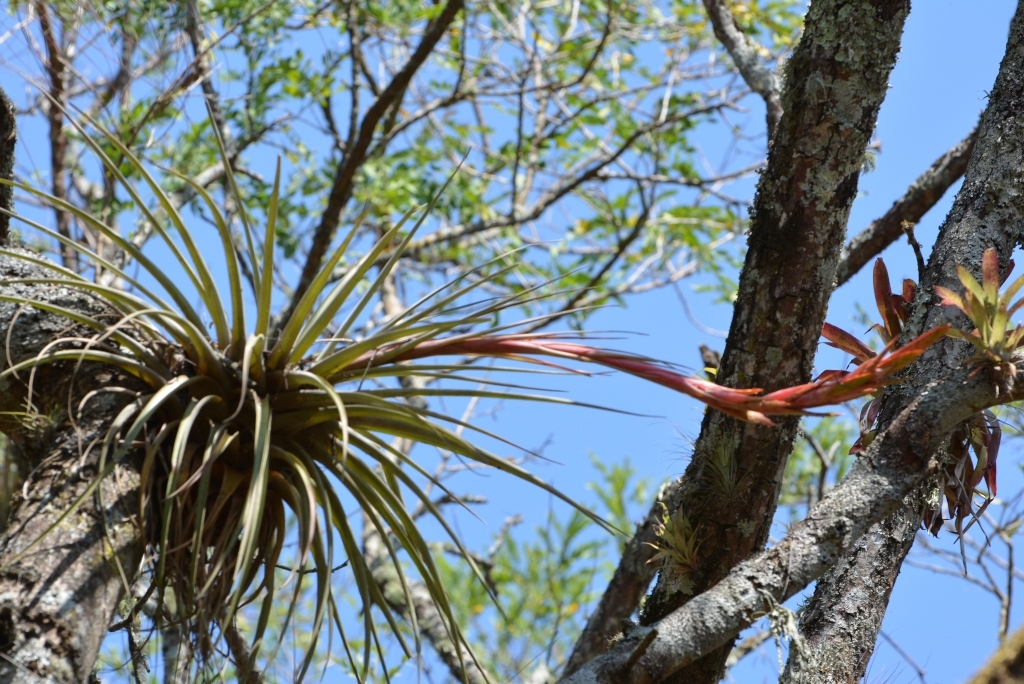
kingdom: Plantae
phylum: Tracheophyta
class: Liliopsida
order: Poales
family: Bromeliaceae
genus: Tillandsia
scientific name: Tillandsia rodrigueziana
